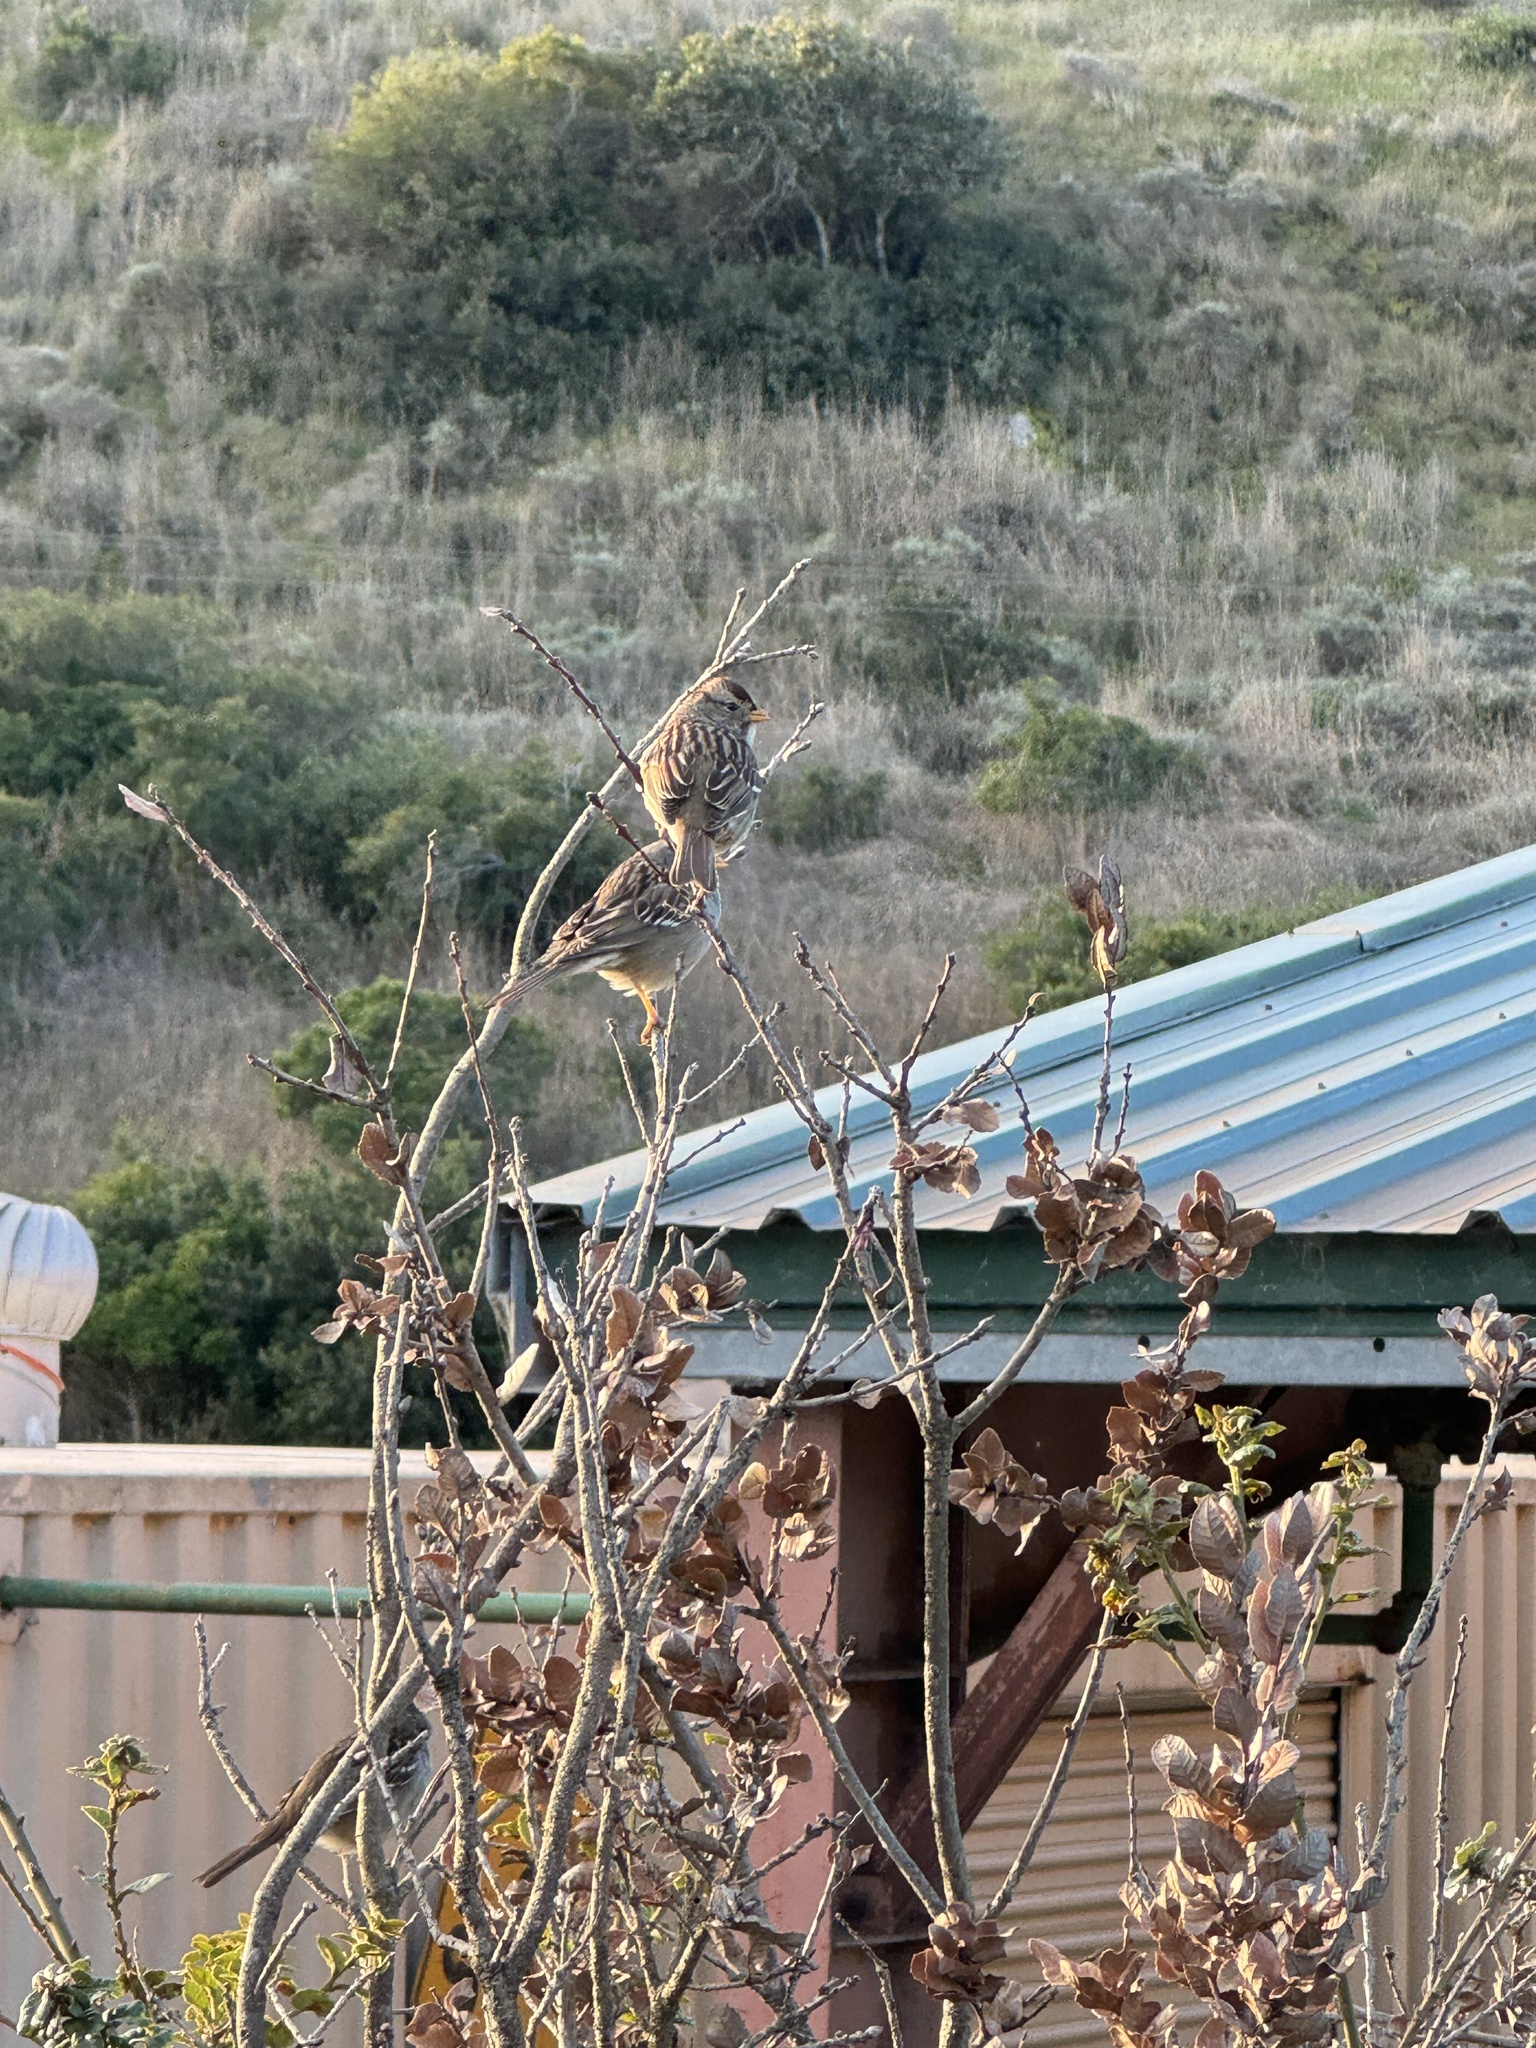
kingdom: Animalia
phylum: Chordata
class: Aves
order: Passeriformes
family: Passerellidae
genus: Zonotrichia
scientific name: Zonotrichia leucophrys
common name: White-crowned sparrow
